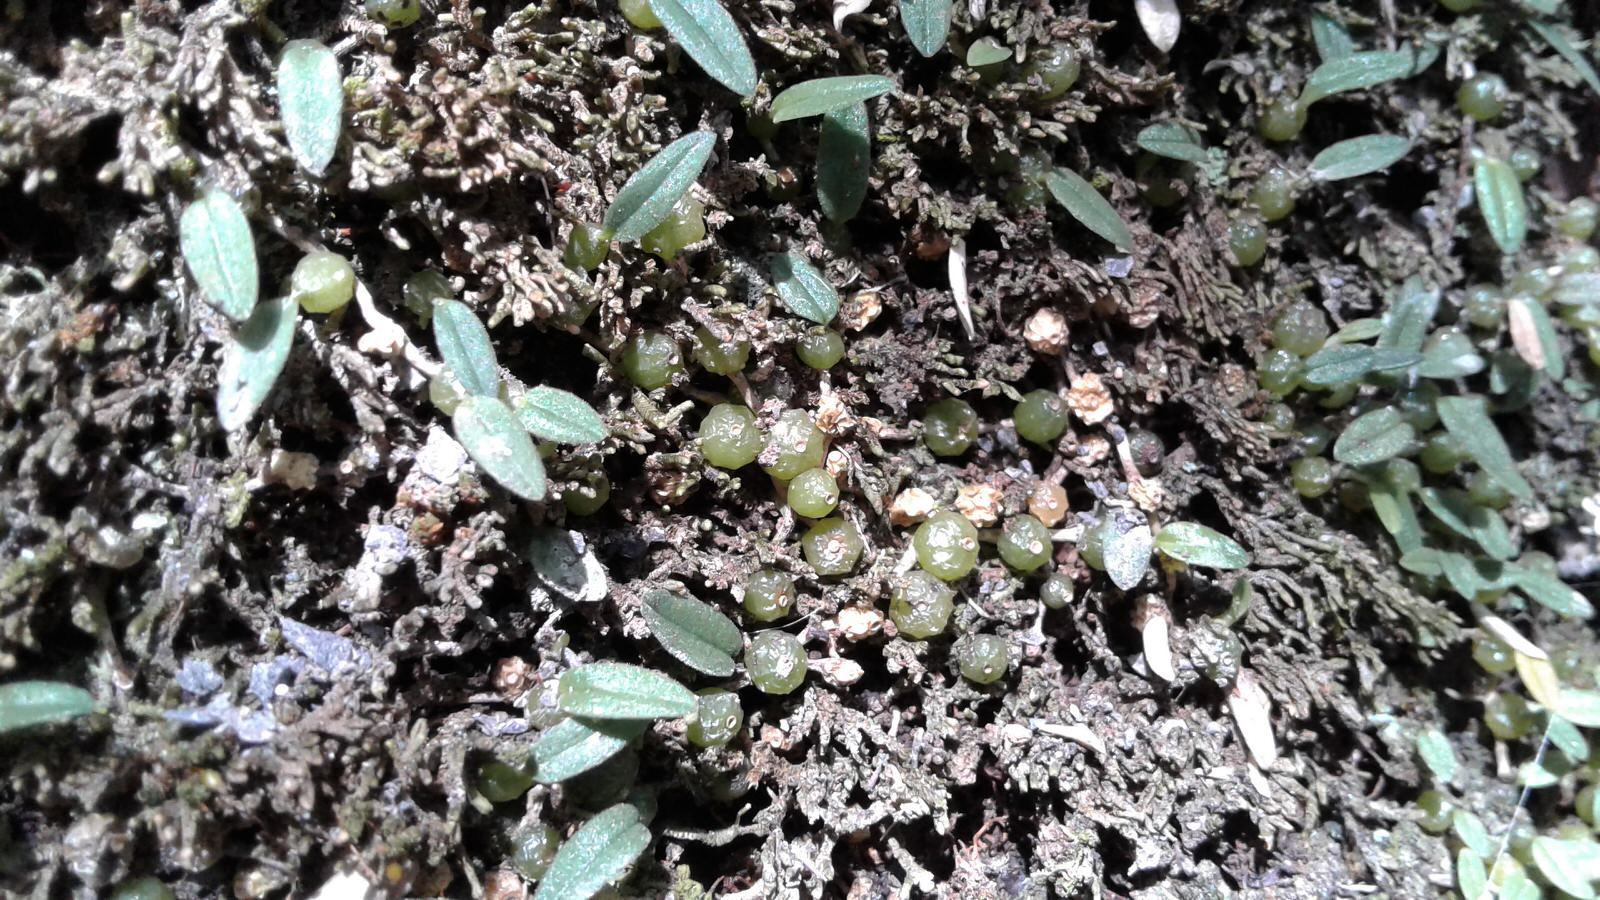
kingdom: Plantae
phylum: Tracheophyta
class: Liliopsida
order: Asparagales
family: Orchidaceae
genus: Bulbophyllum
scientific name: Bulbophyllum pygmaeum
